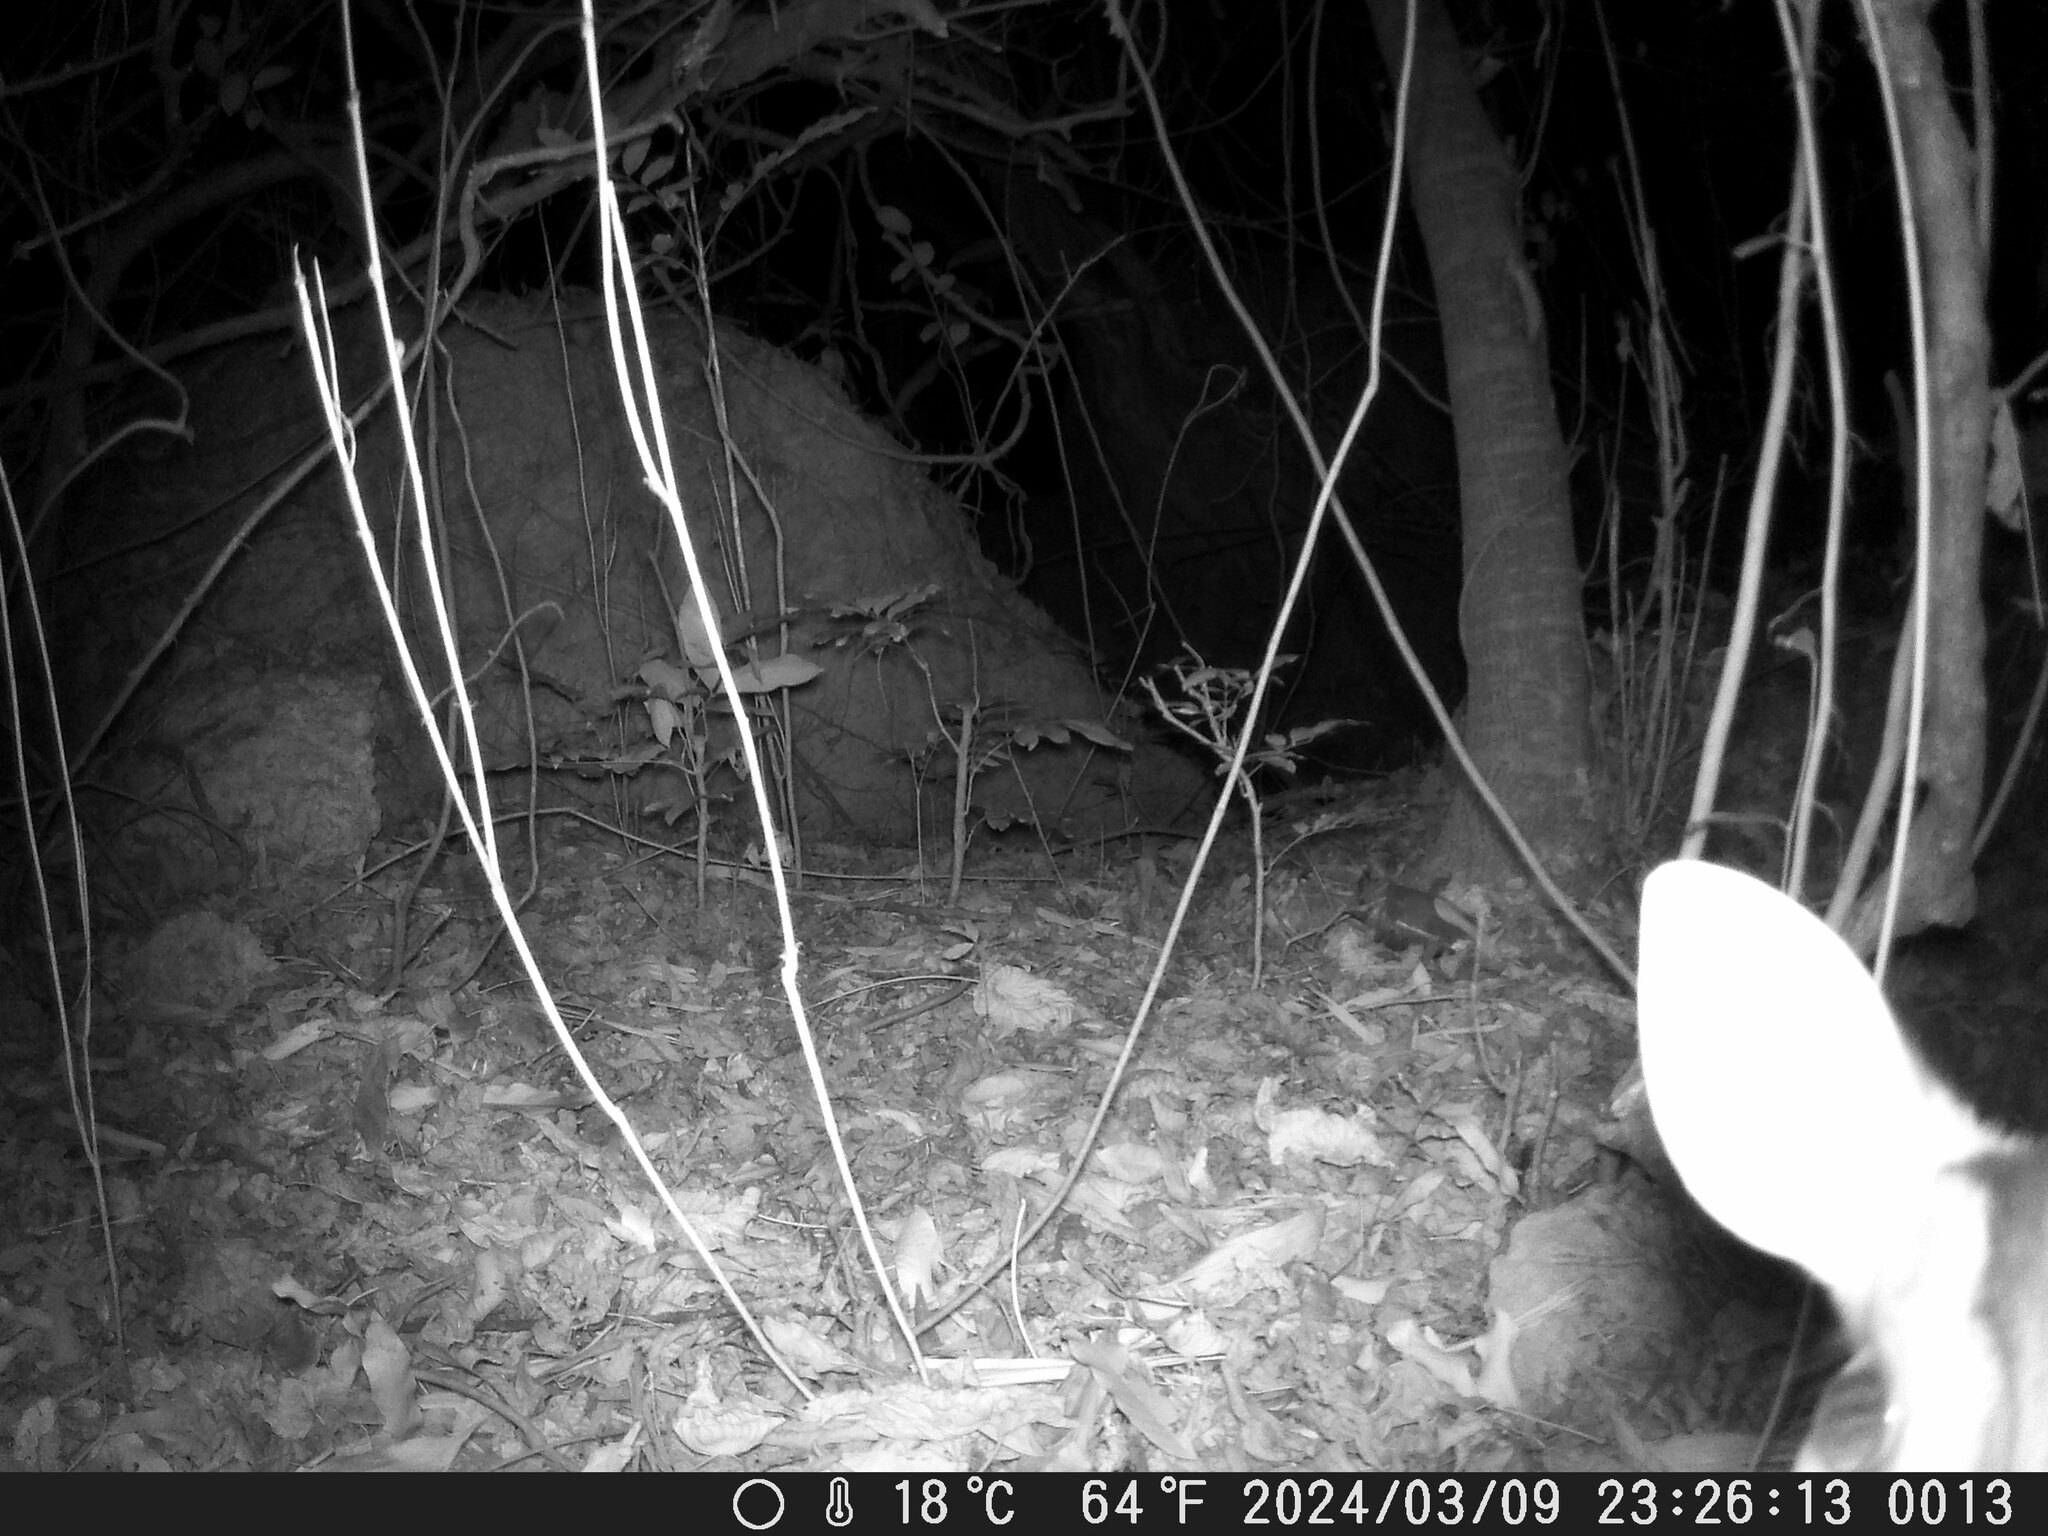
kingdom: Animalia
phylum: Chordata
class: Mammalia
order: Artiodactyla
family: Cervidae
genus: Muntiacus
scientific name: Muntiacus reevesi
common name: Reeves' muntjac
